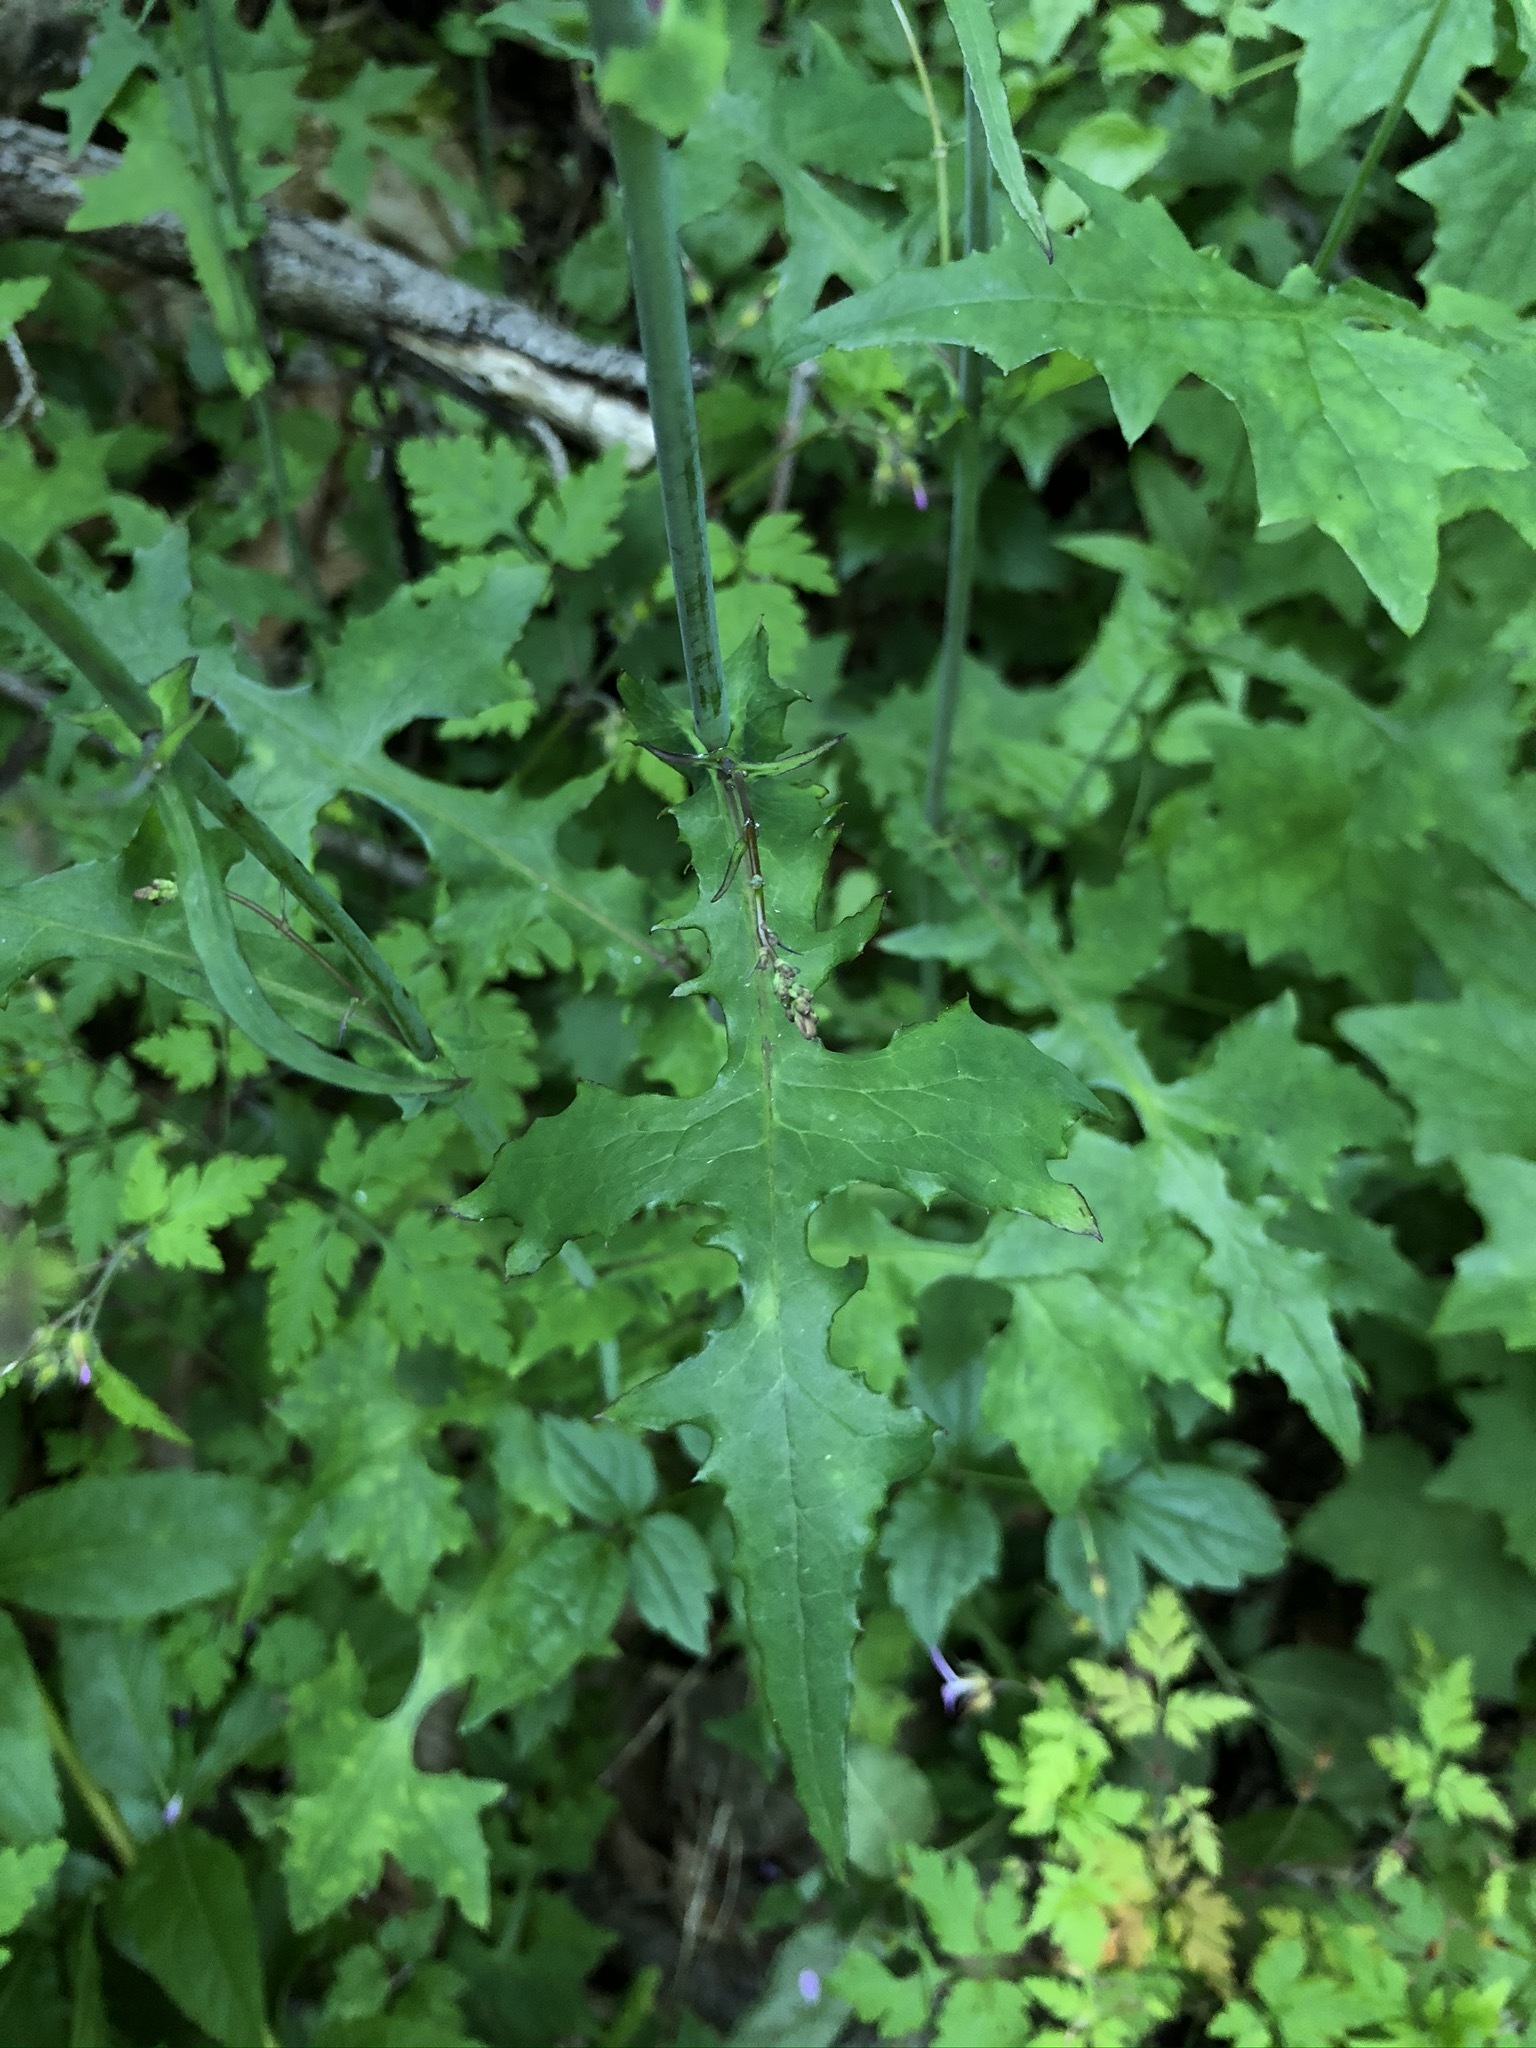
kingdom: Plantae
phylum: Tracheophyta
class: Magnoliopsida
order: Asterales
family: Asteraceae
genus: Mycelis
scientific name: Mycelis muralis
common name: Wall lettuce
